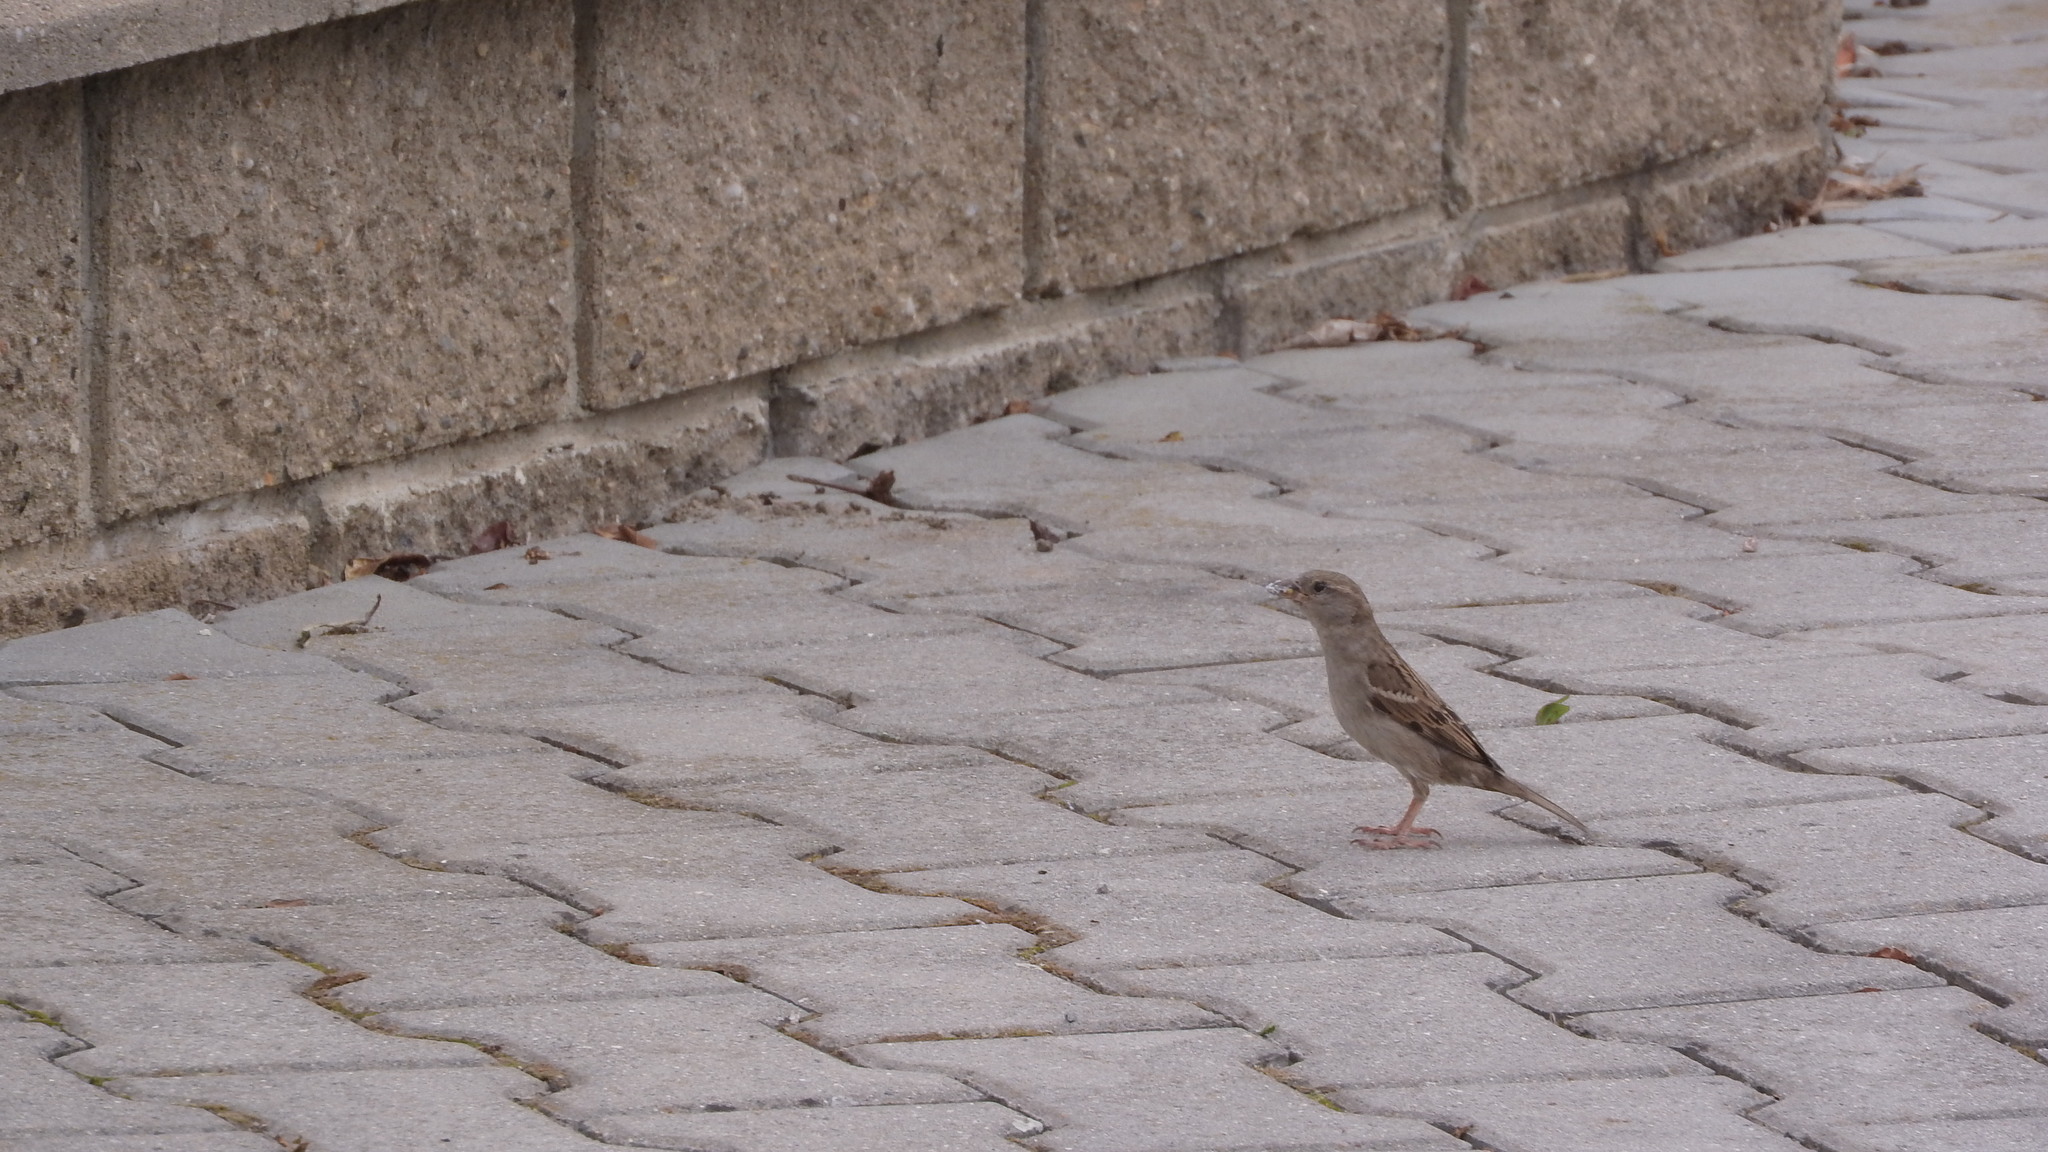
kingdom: Animalia
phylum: Chordata
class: Aves
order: Passeriformes
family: Passeridae
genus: Passer
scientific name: Passer domesticus
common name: House sparrow
